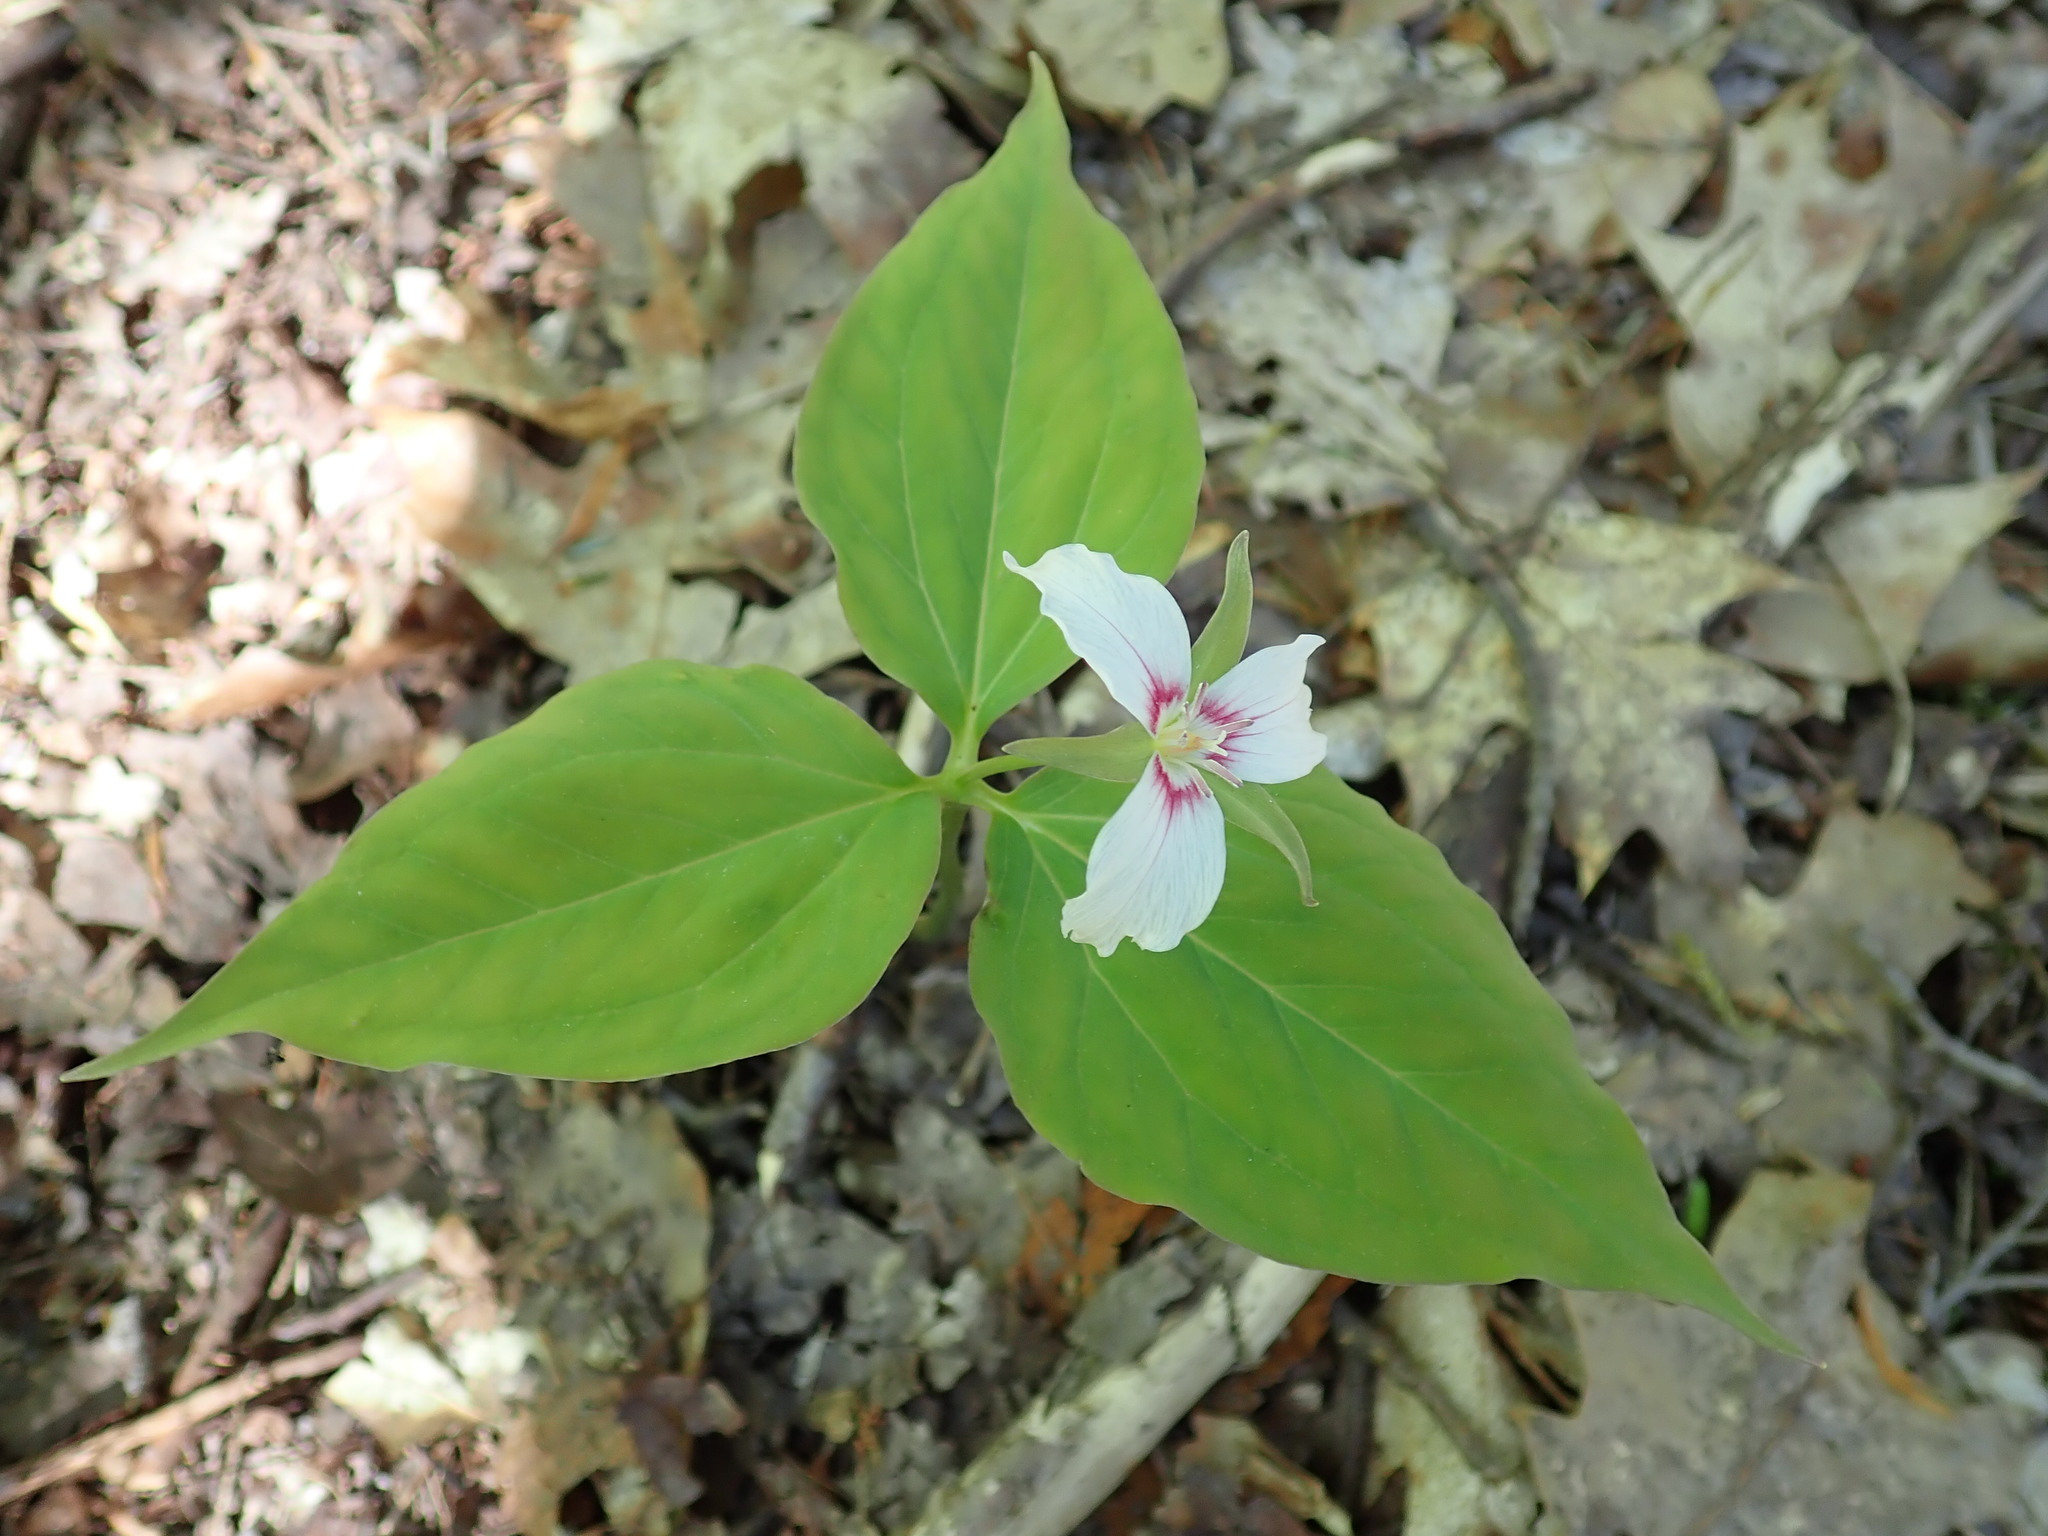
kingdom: Plantae
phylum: Tracheophyta
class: Liliopsida
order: Liliales
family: Melanthiaceae
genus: Trillium
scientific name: Trillium undulatum
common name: Paint trillium
